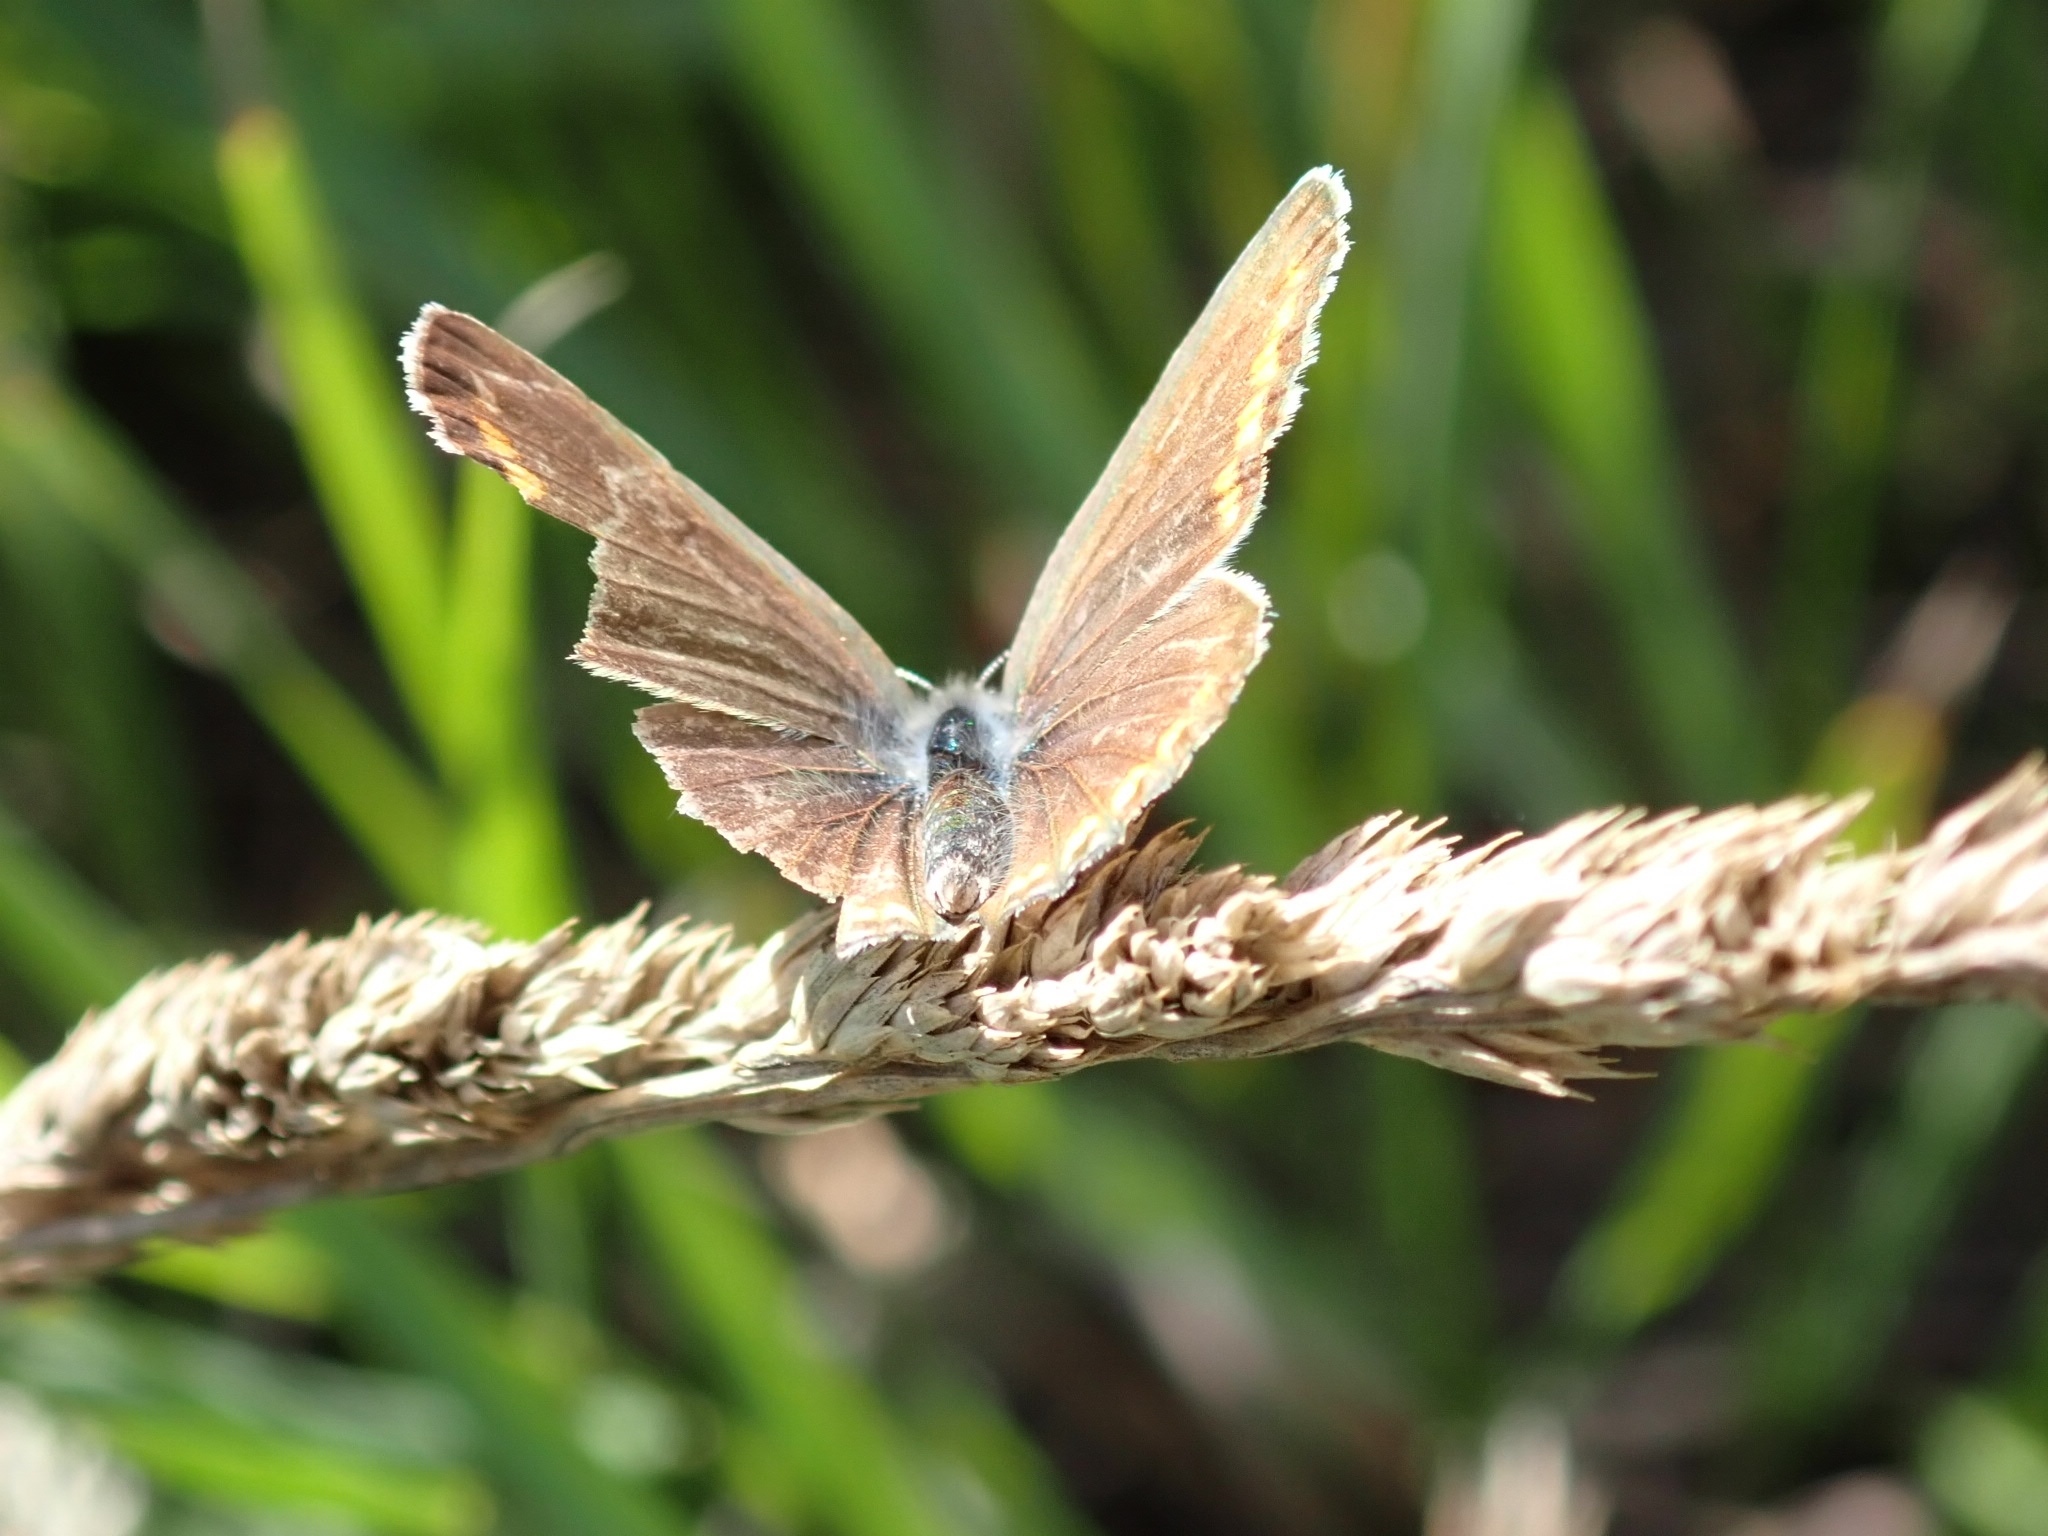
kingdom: Animalia
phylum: Arthropoda
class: Insecta
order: Lepidoptera
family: Lycaenidae
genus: Polyommatus
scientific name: Polyommatus icarus
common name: Common blue
